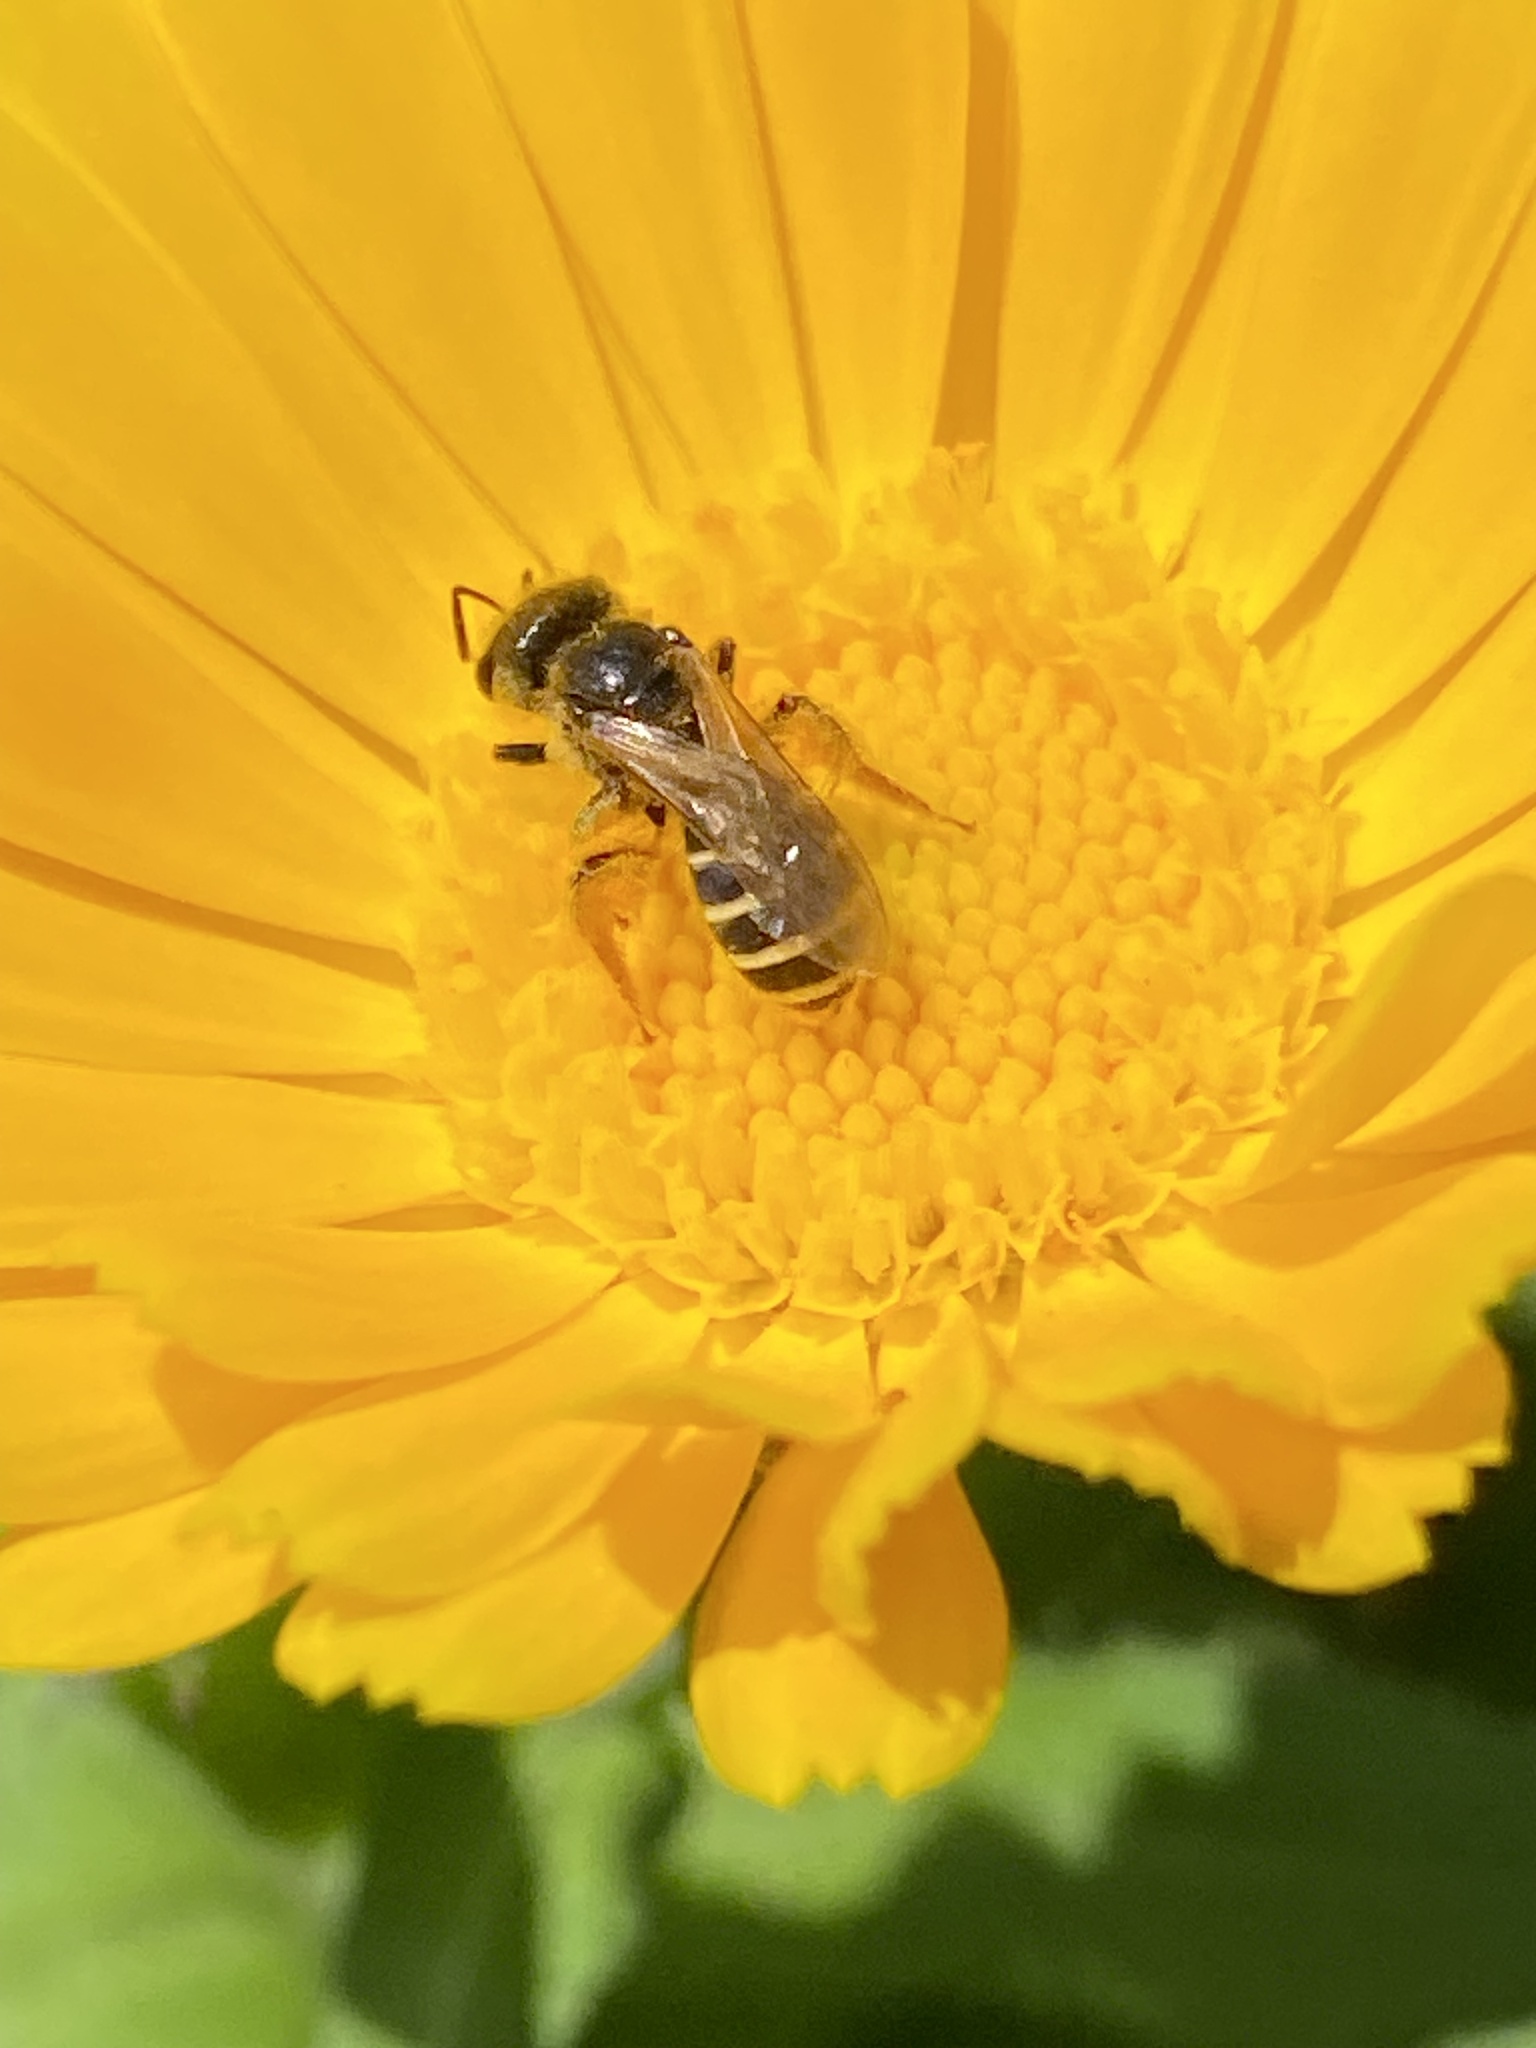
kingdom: Animalia
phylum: Arthropoda
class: Insecta
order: Hymenoptera
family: Halictidae
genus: Halictus
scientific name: Halictus ligatus
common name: Ligated furrow bee
